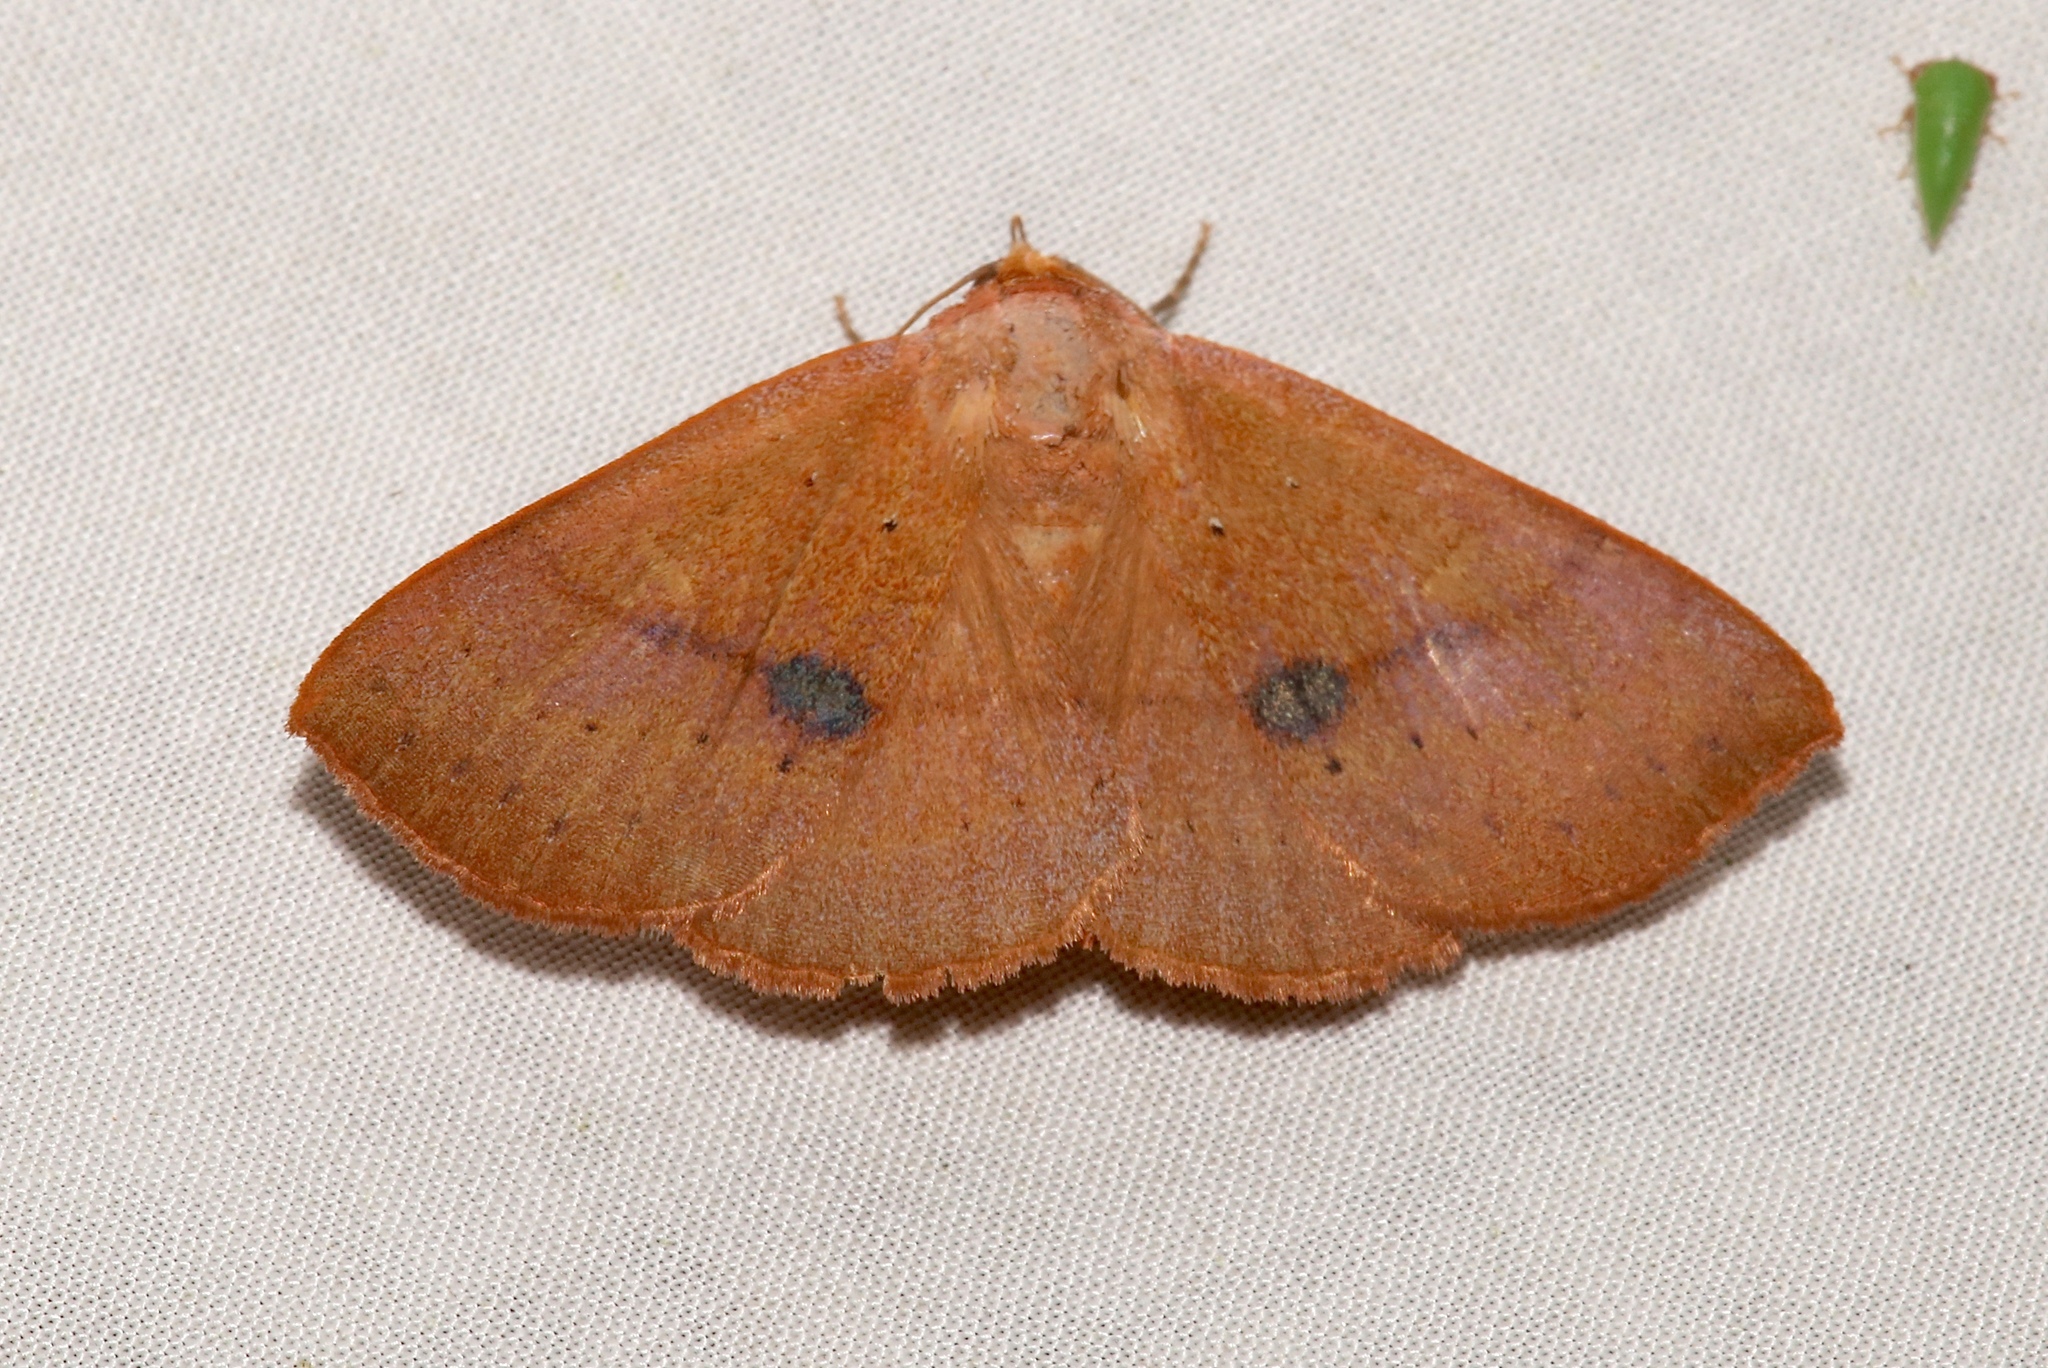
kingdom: Animalia
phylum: Arthropoda
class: Insecta
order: Lepidoptera
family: Erebidae
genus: Panopoda
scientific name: Panopoda repanda
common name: Orange panopoda
